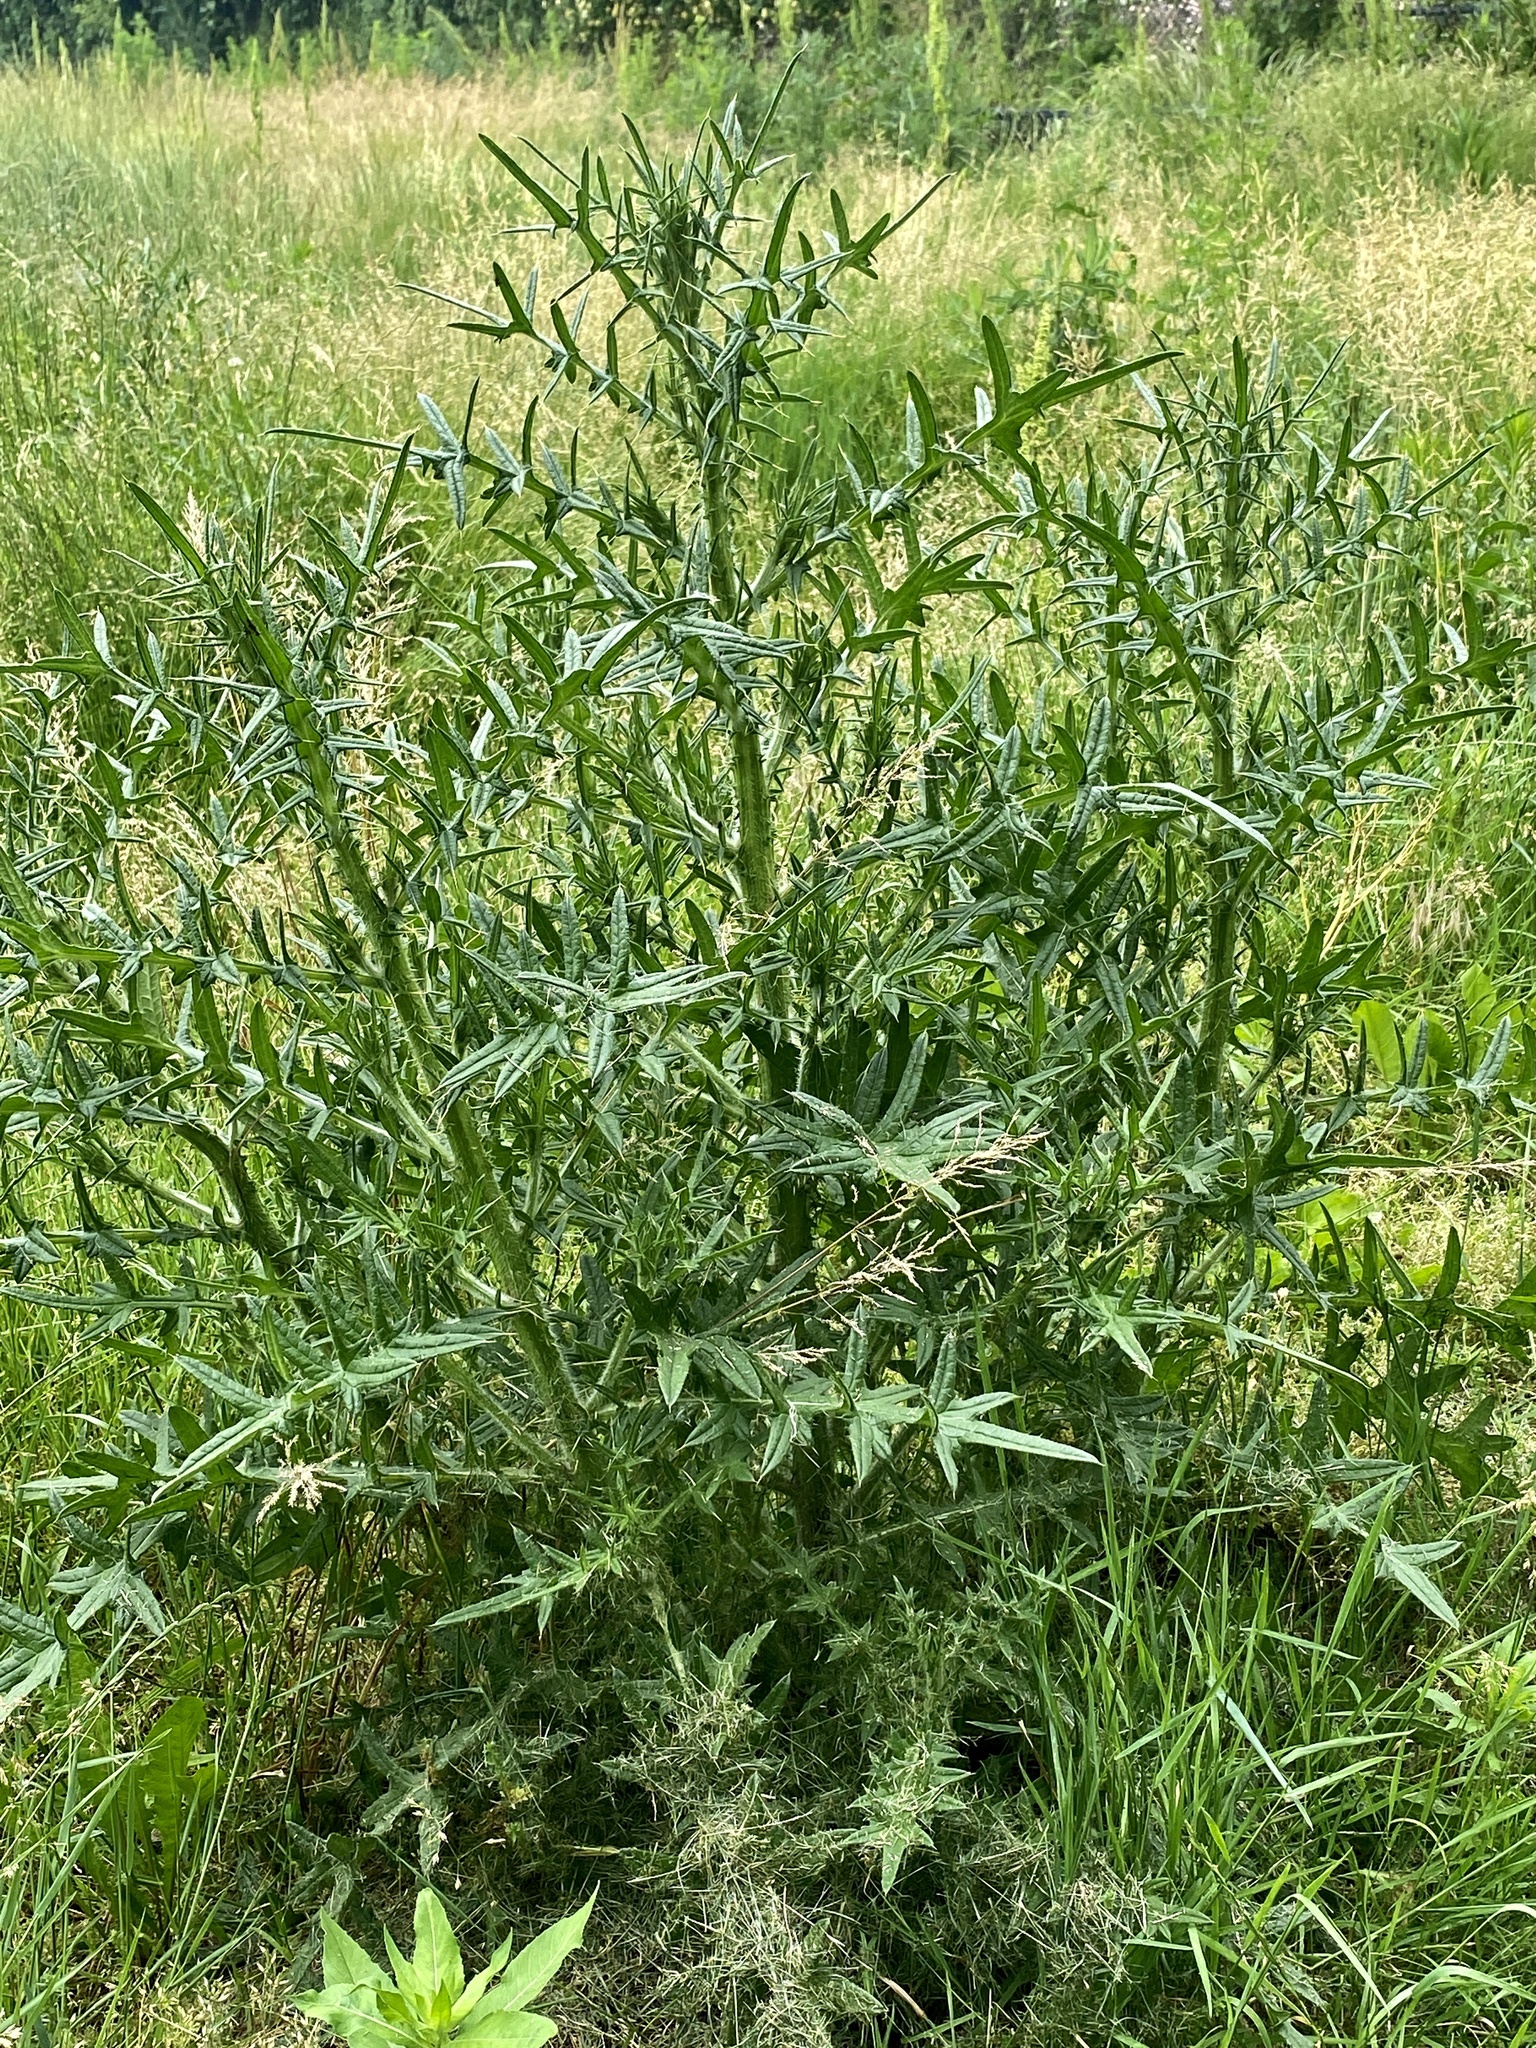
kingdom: Plantae
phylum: Tracheophyta
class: Magnoliopsida
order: Asterales
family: Asteraceae
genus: Cirsium
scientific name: Cirsium vulgare
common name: Bull thistle
